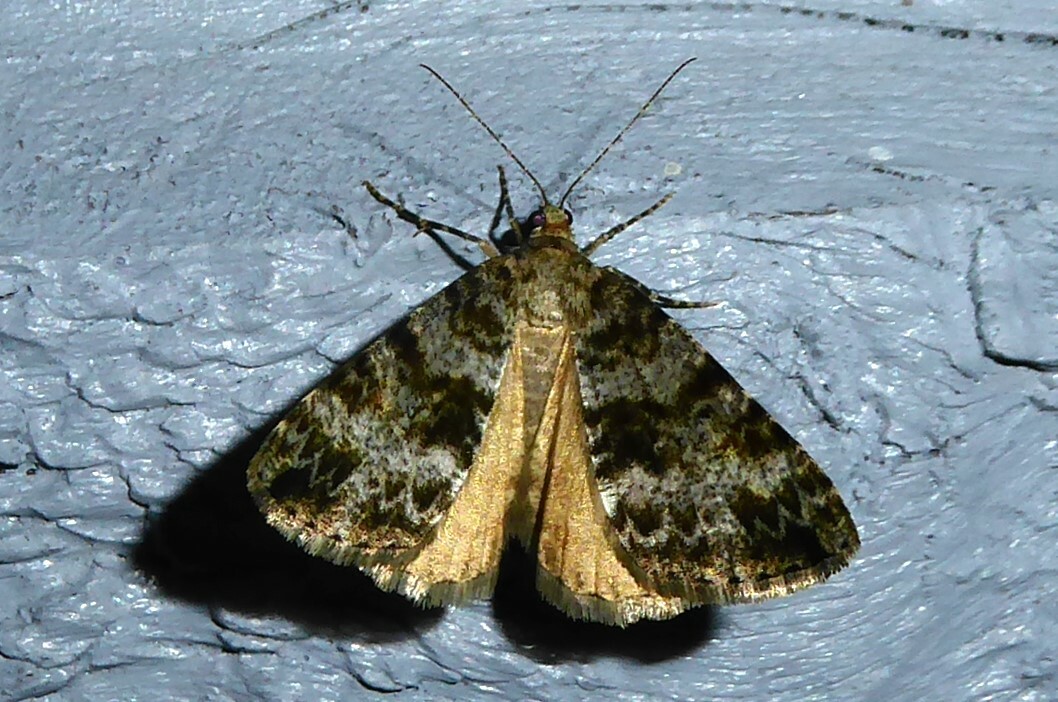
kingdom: Animalia
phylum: Arthropoda
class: Insecta
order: Lepidoptera
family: Geometridae
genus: Pseudocoremia
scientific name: Pseudocoremia lactiflua
